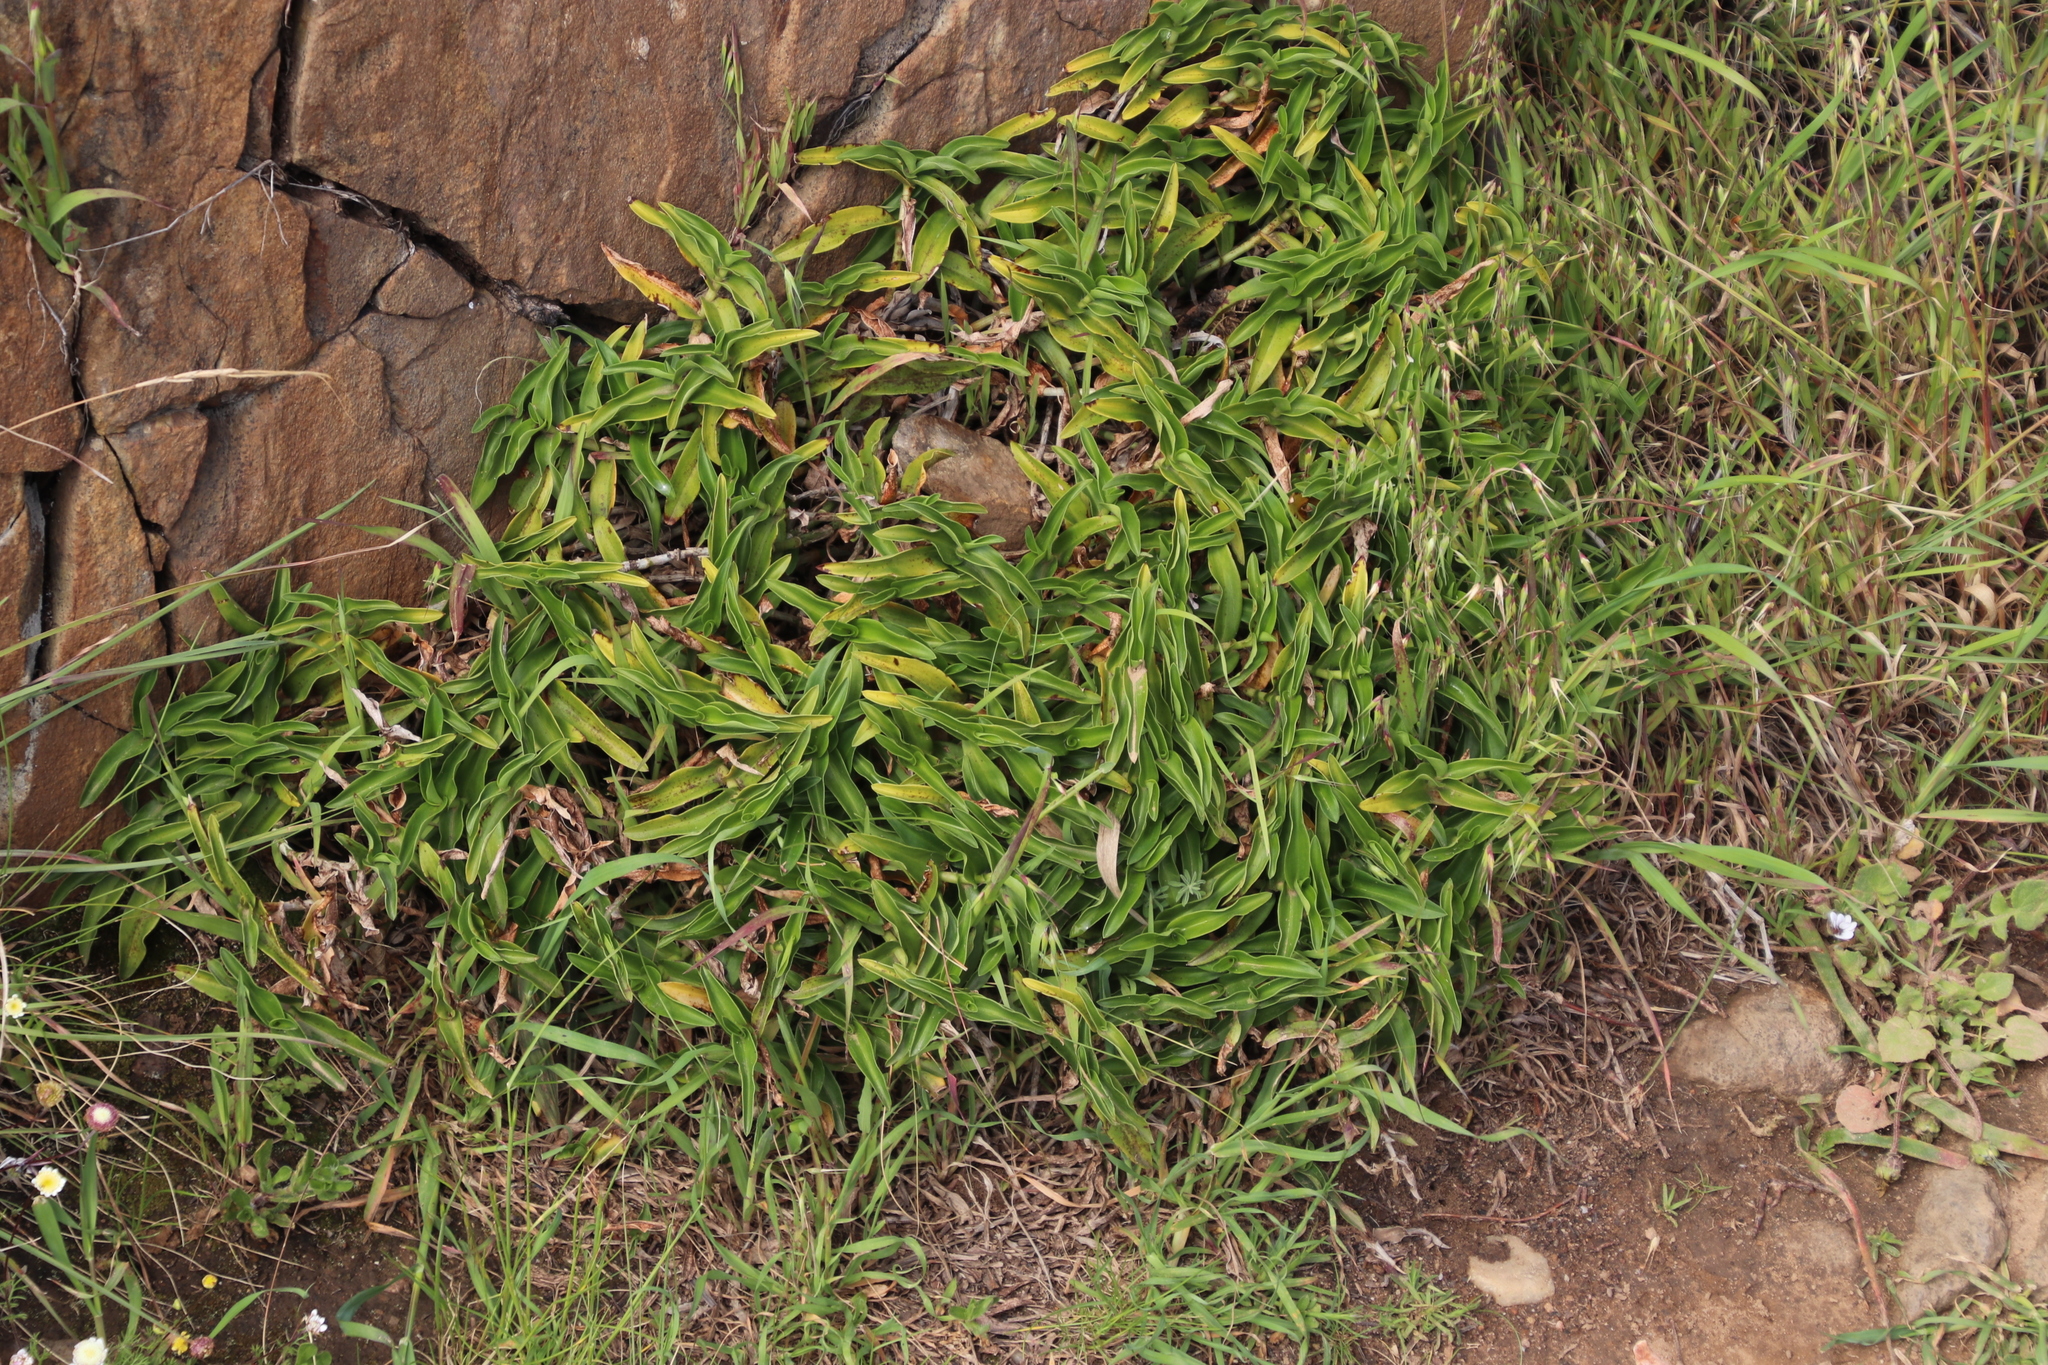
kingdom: Plantae
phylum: Tracheophyta
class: Liliopsida
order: Commelinales
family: Commelinaceae
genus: Commelina
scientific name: Commelina africana
